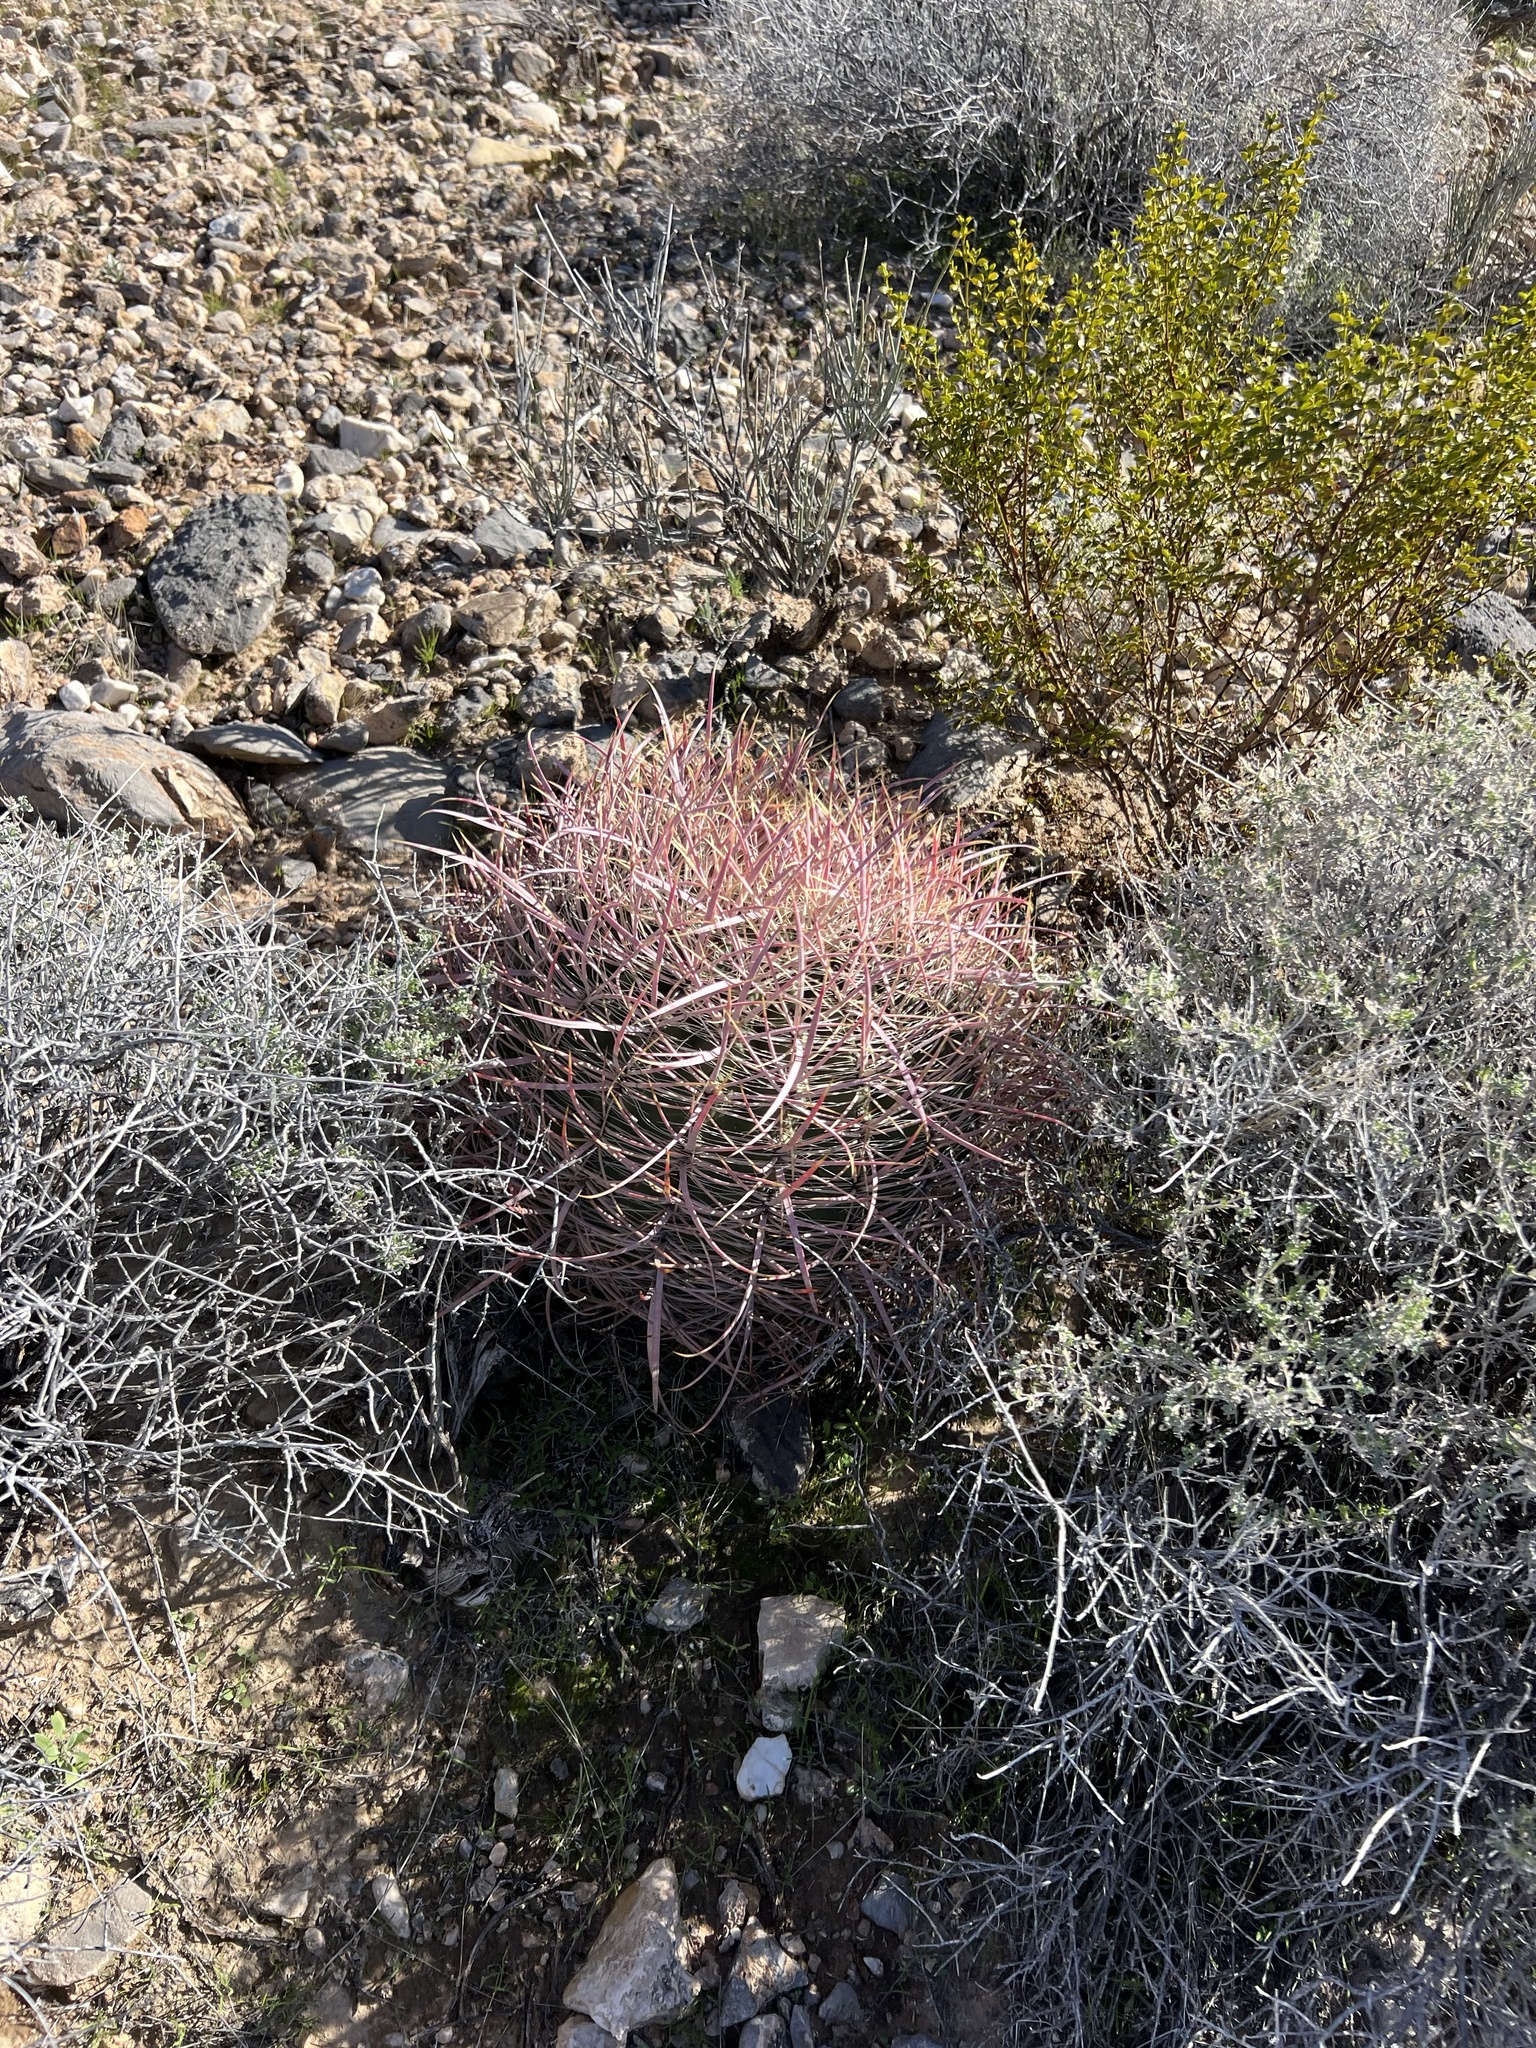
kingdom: Plantae
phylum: Tracheophyta
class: Magnoliopsida
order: Caryophyllales
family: Cactaceae
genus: Ferocactus
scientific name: Ferocactus cylindraceus
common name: California barrel cactus
